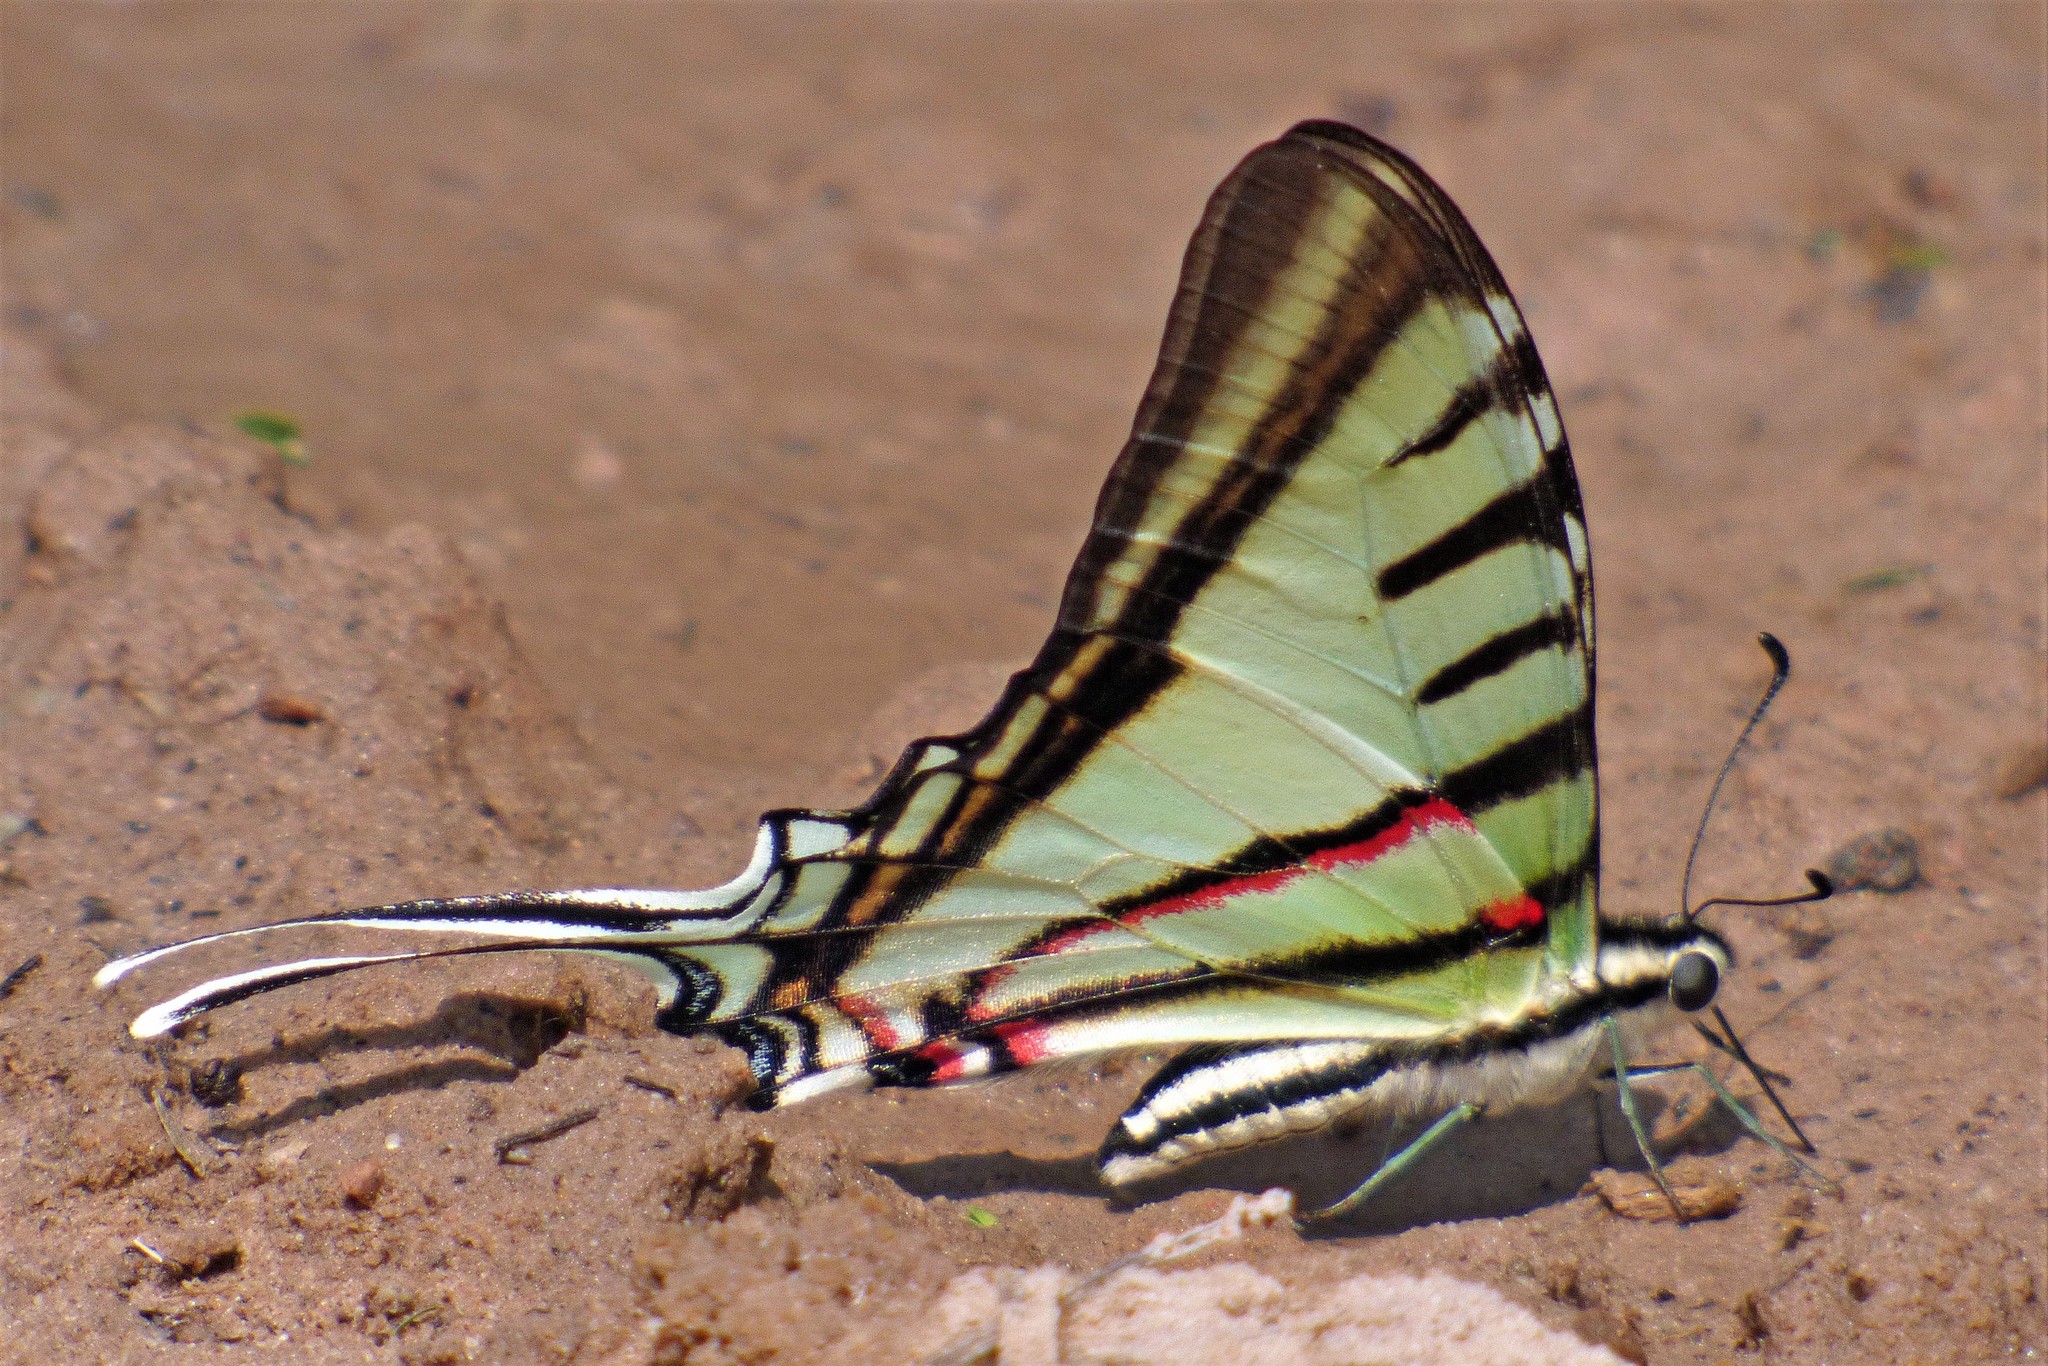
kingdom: Animalia
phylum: Arthropoda
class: Insecta
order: Lepidoptera
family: Papilionidae
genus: Eurytides
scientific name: Eurytides
